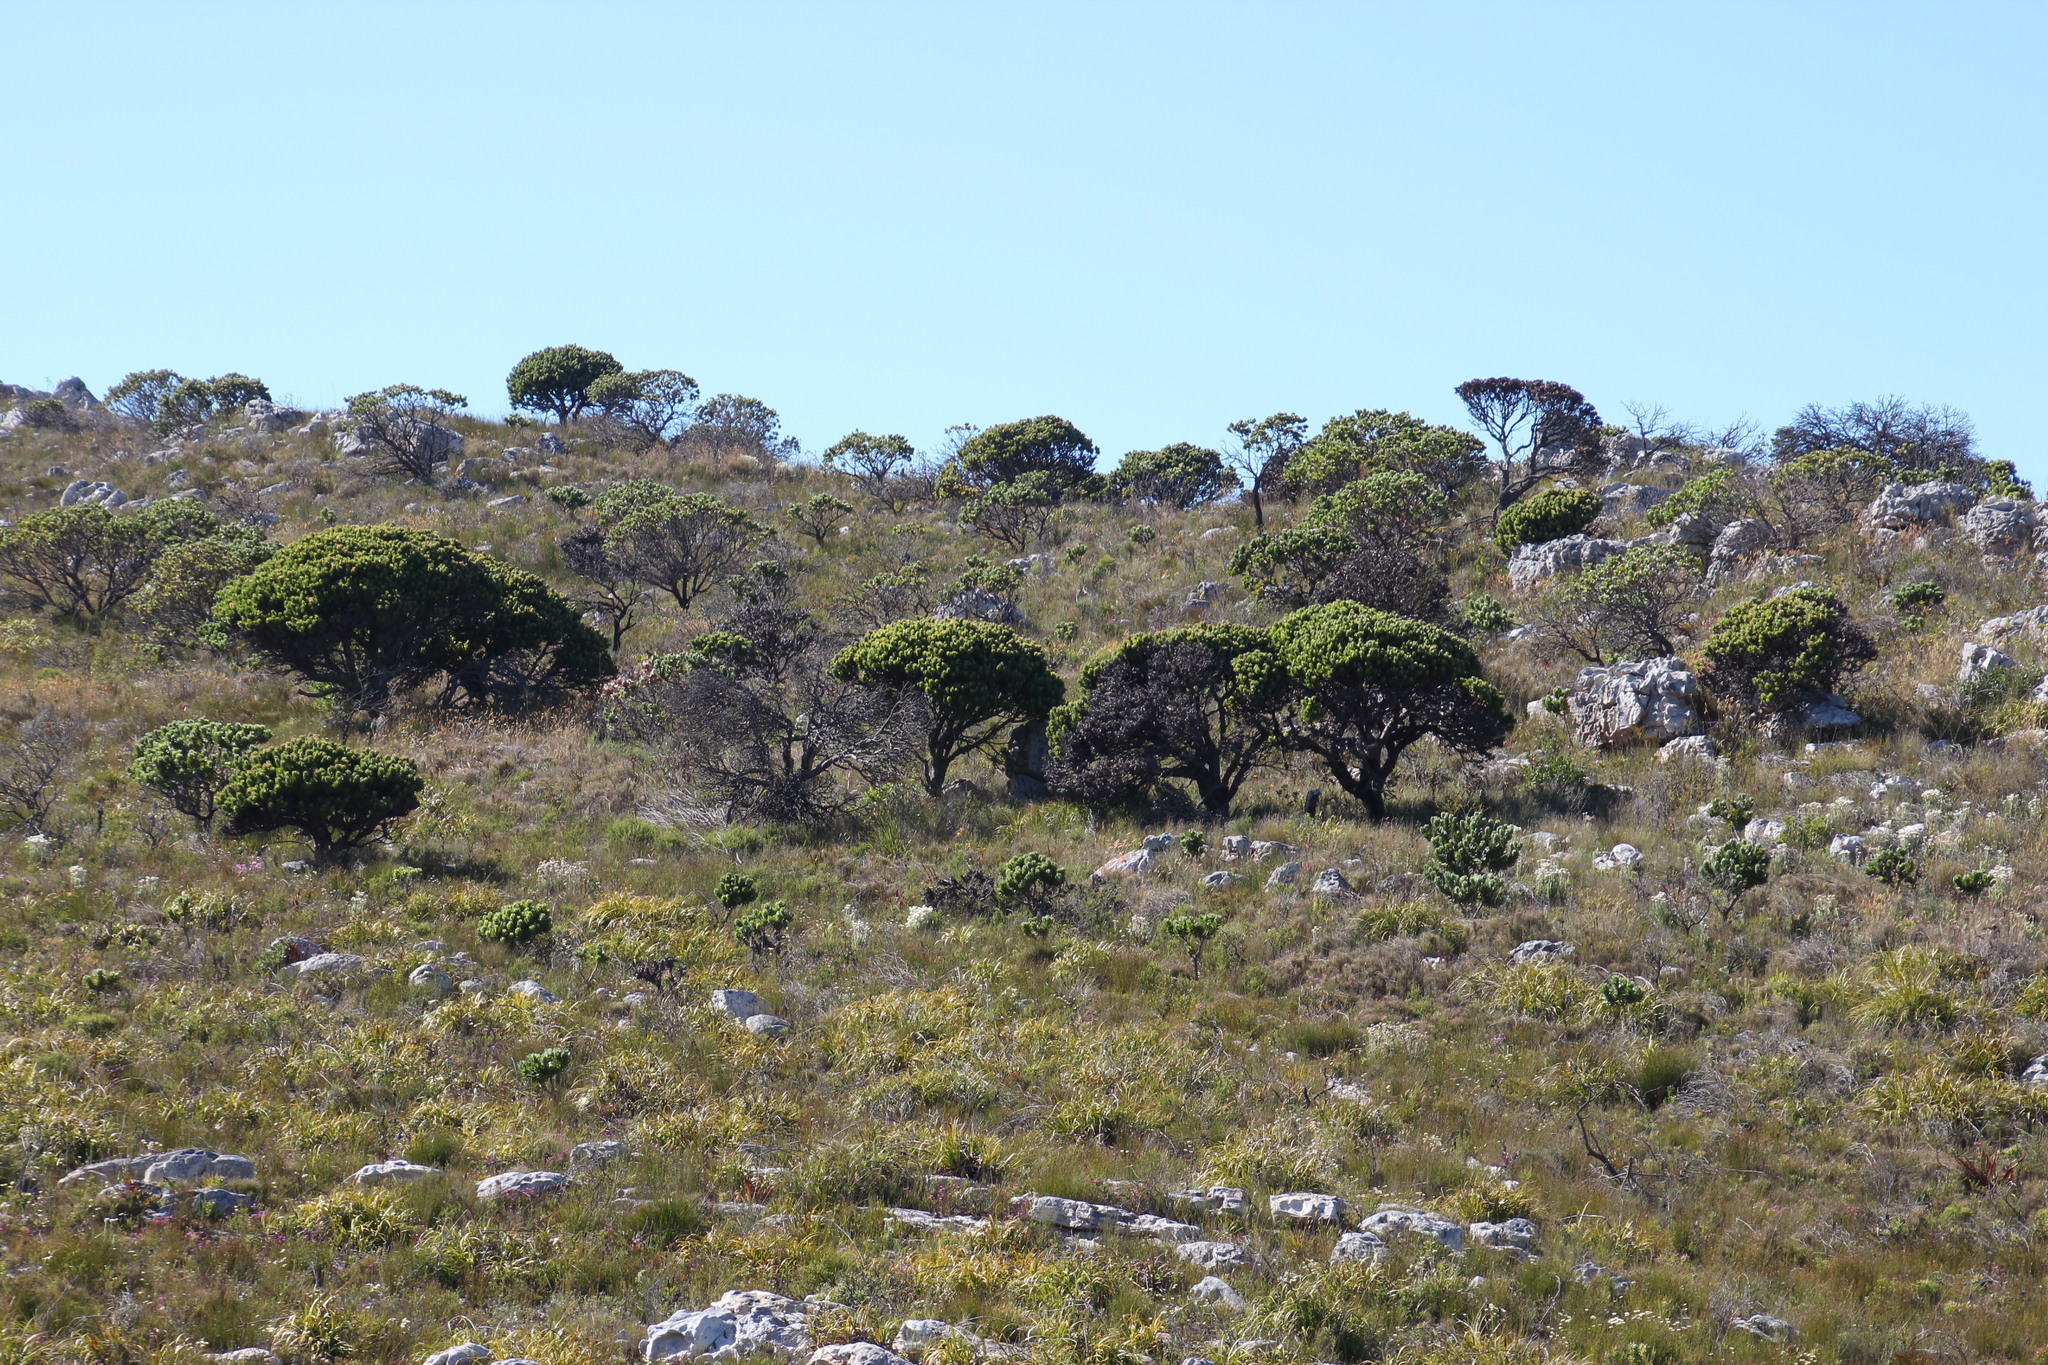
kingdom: Plantae
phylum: Tracheophyta
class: Magnoliopsida
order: Proteales
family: Proteaceae
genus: Mimetes
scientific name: Mimetes fimbriifolius
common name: Fringed bottlebrush
